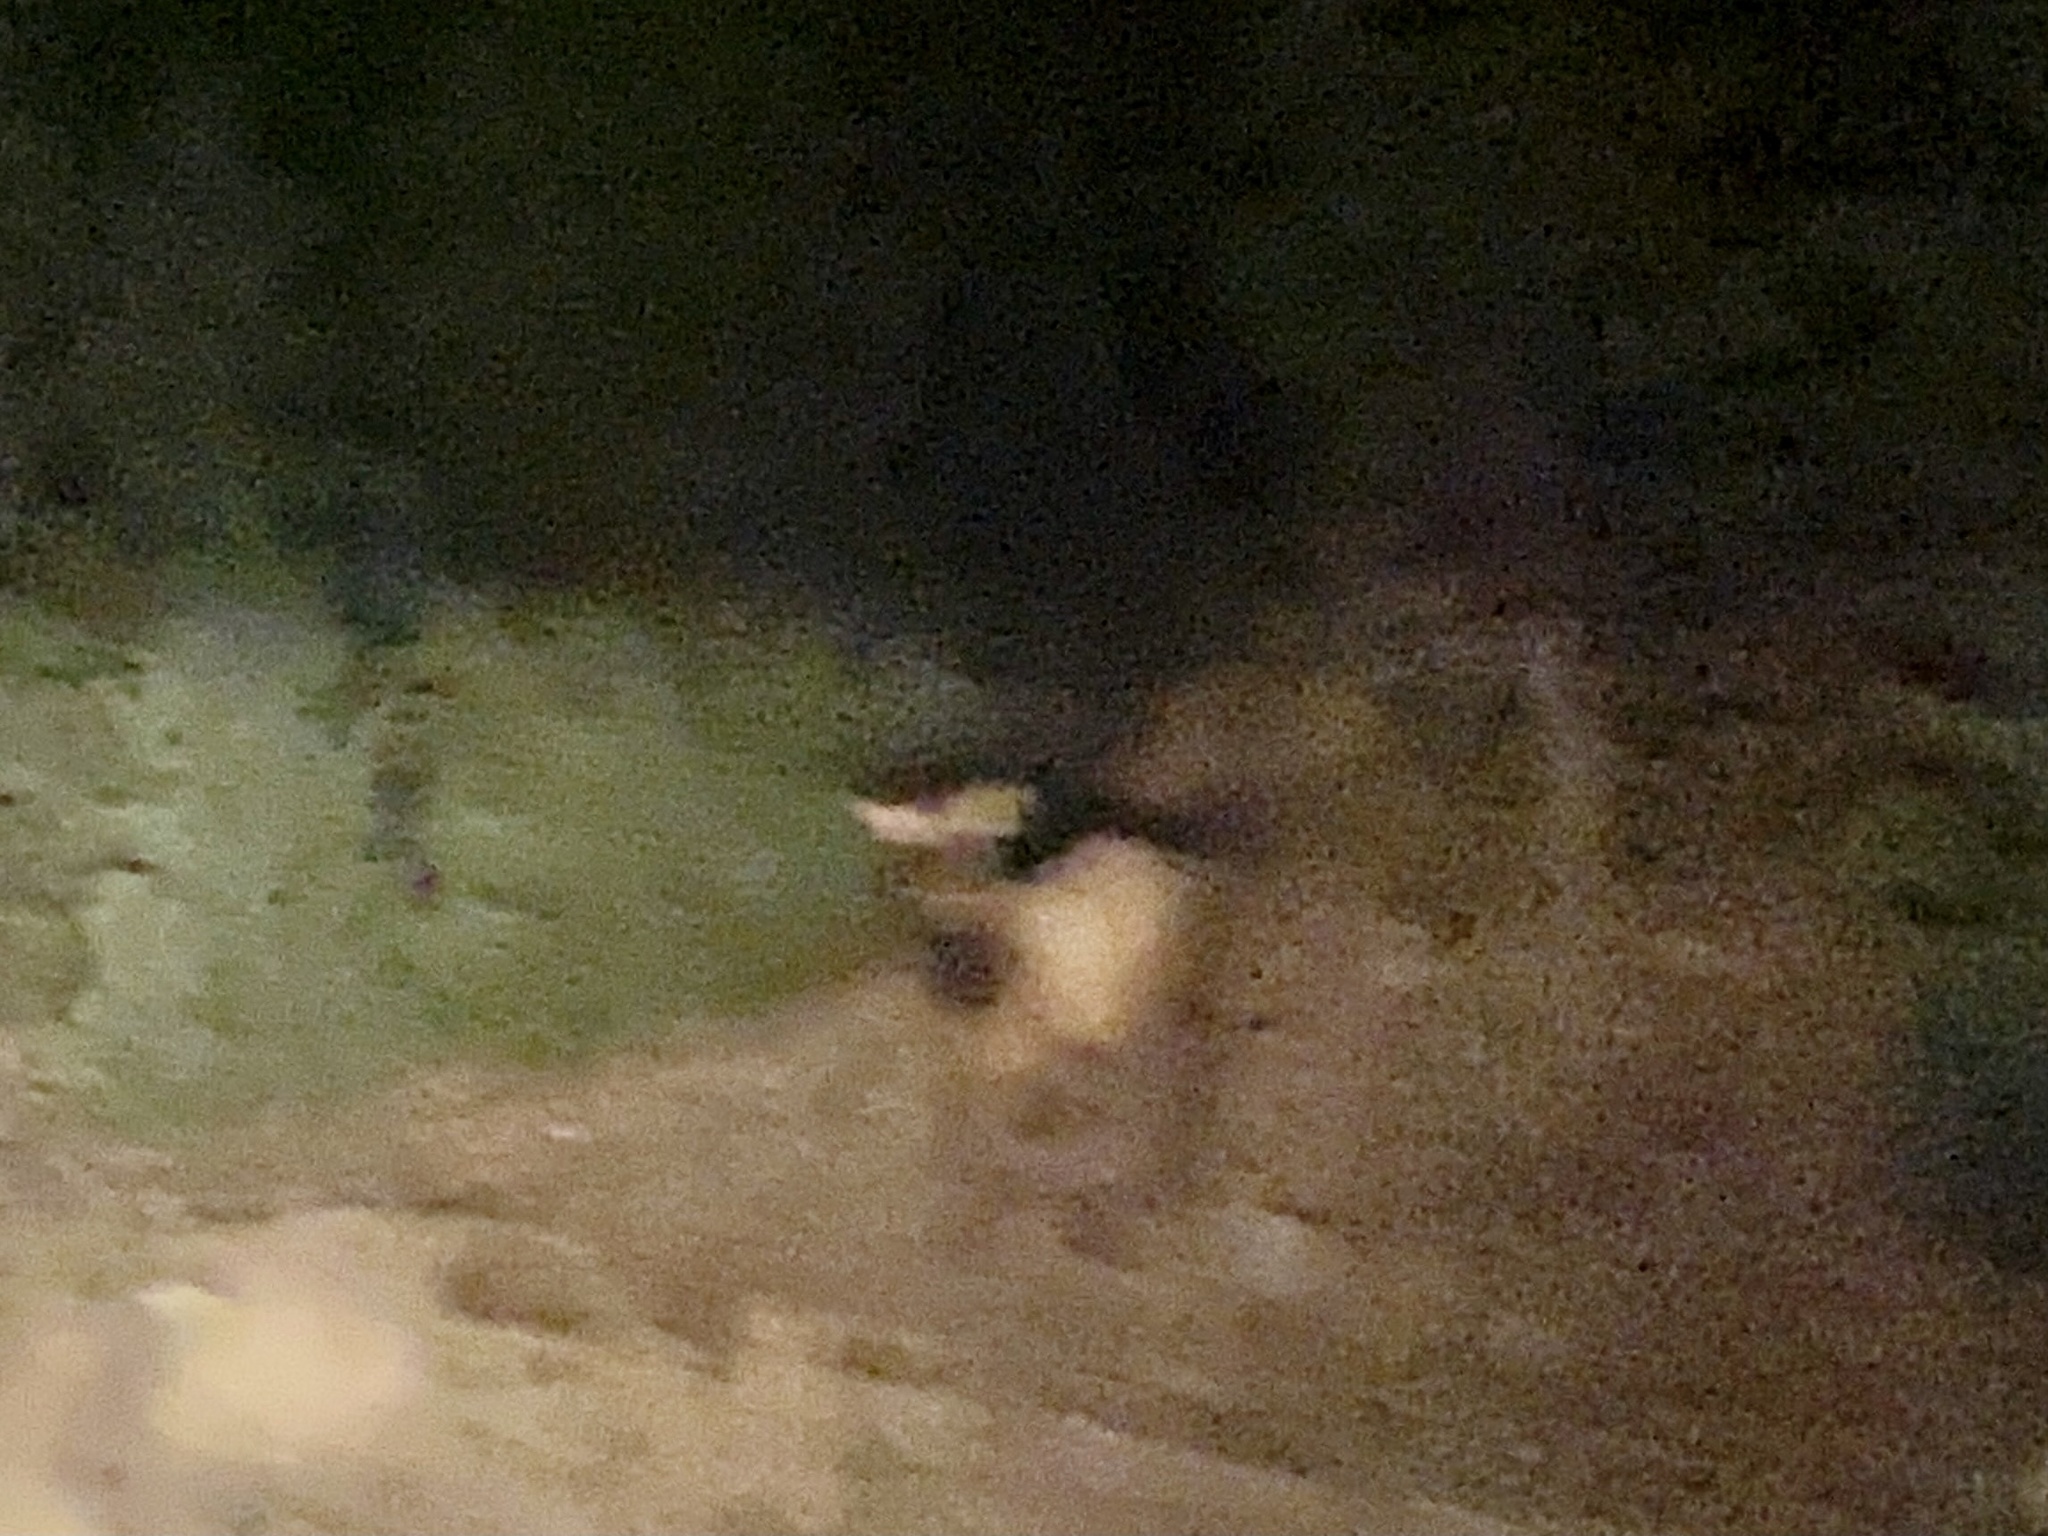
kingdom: Animalia
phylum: Chordata
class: Mammalia
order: Artiodactyla
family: Cervidae
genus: Cervus
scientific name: Cervus elaphus
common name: Red deer
